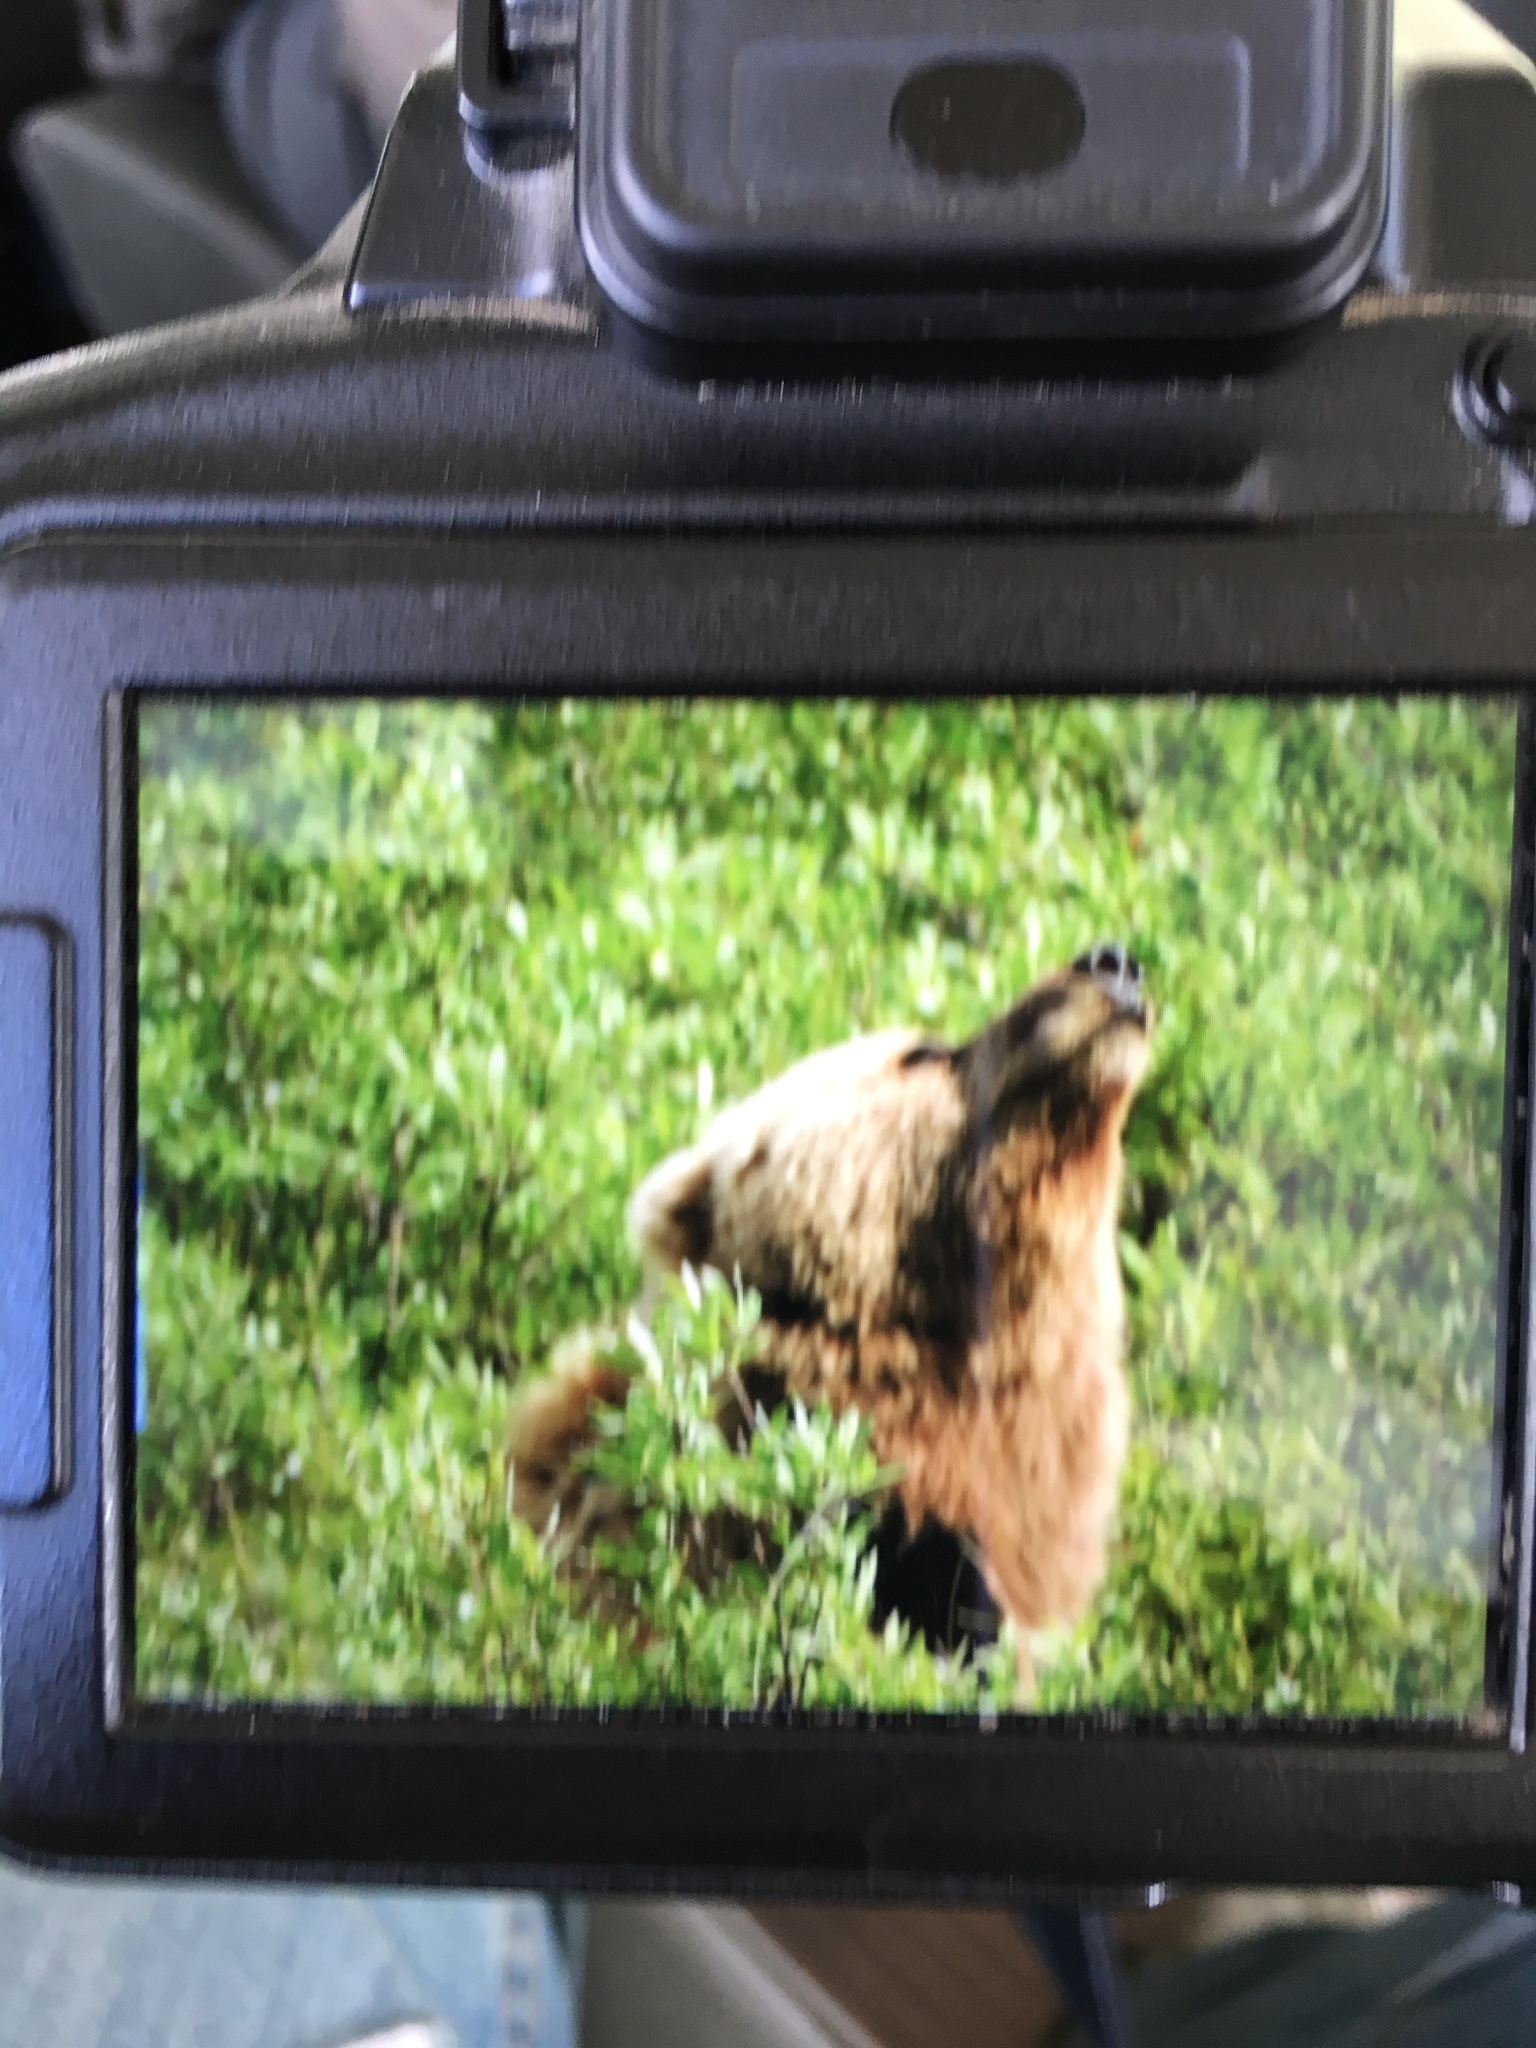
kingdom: Animalia
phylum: Chordata
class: Mammalia
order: Carnivora
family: Ursidae
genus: Ursus
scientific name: Ursus arctos
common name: Brown bear
